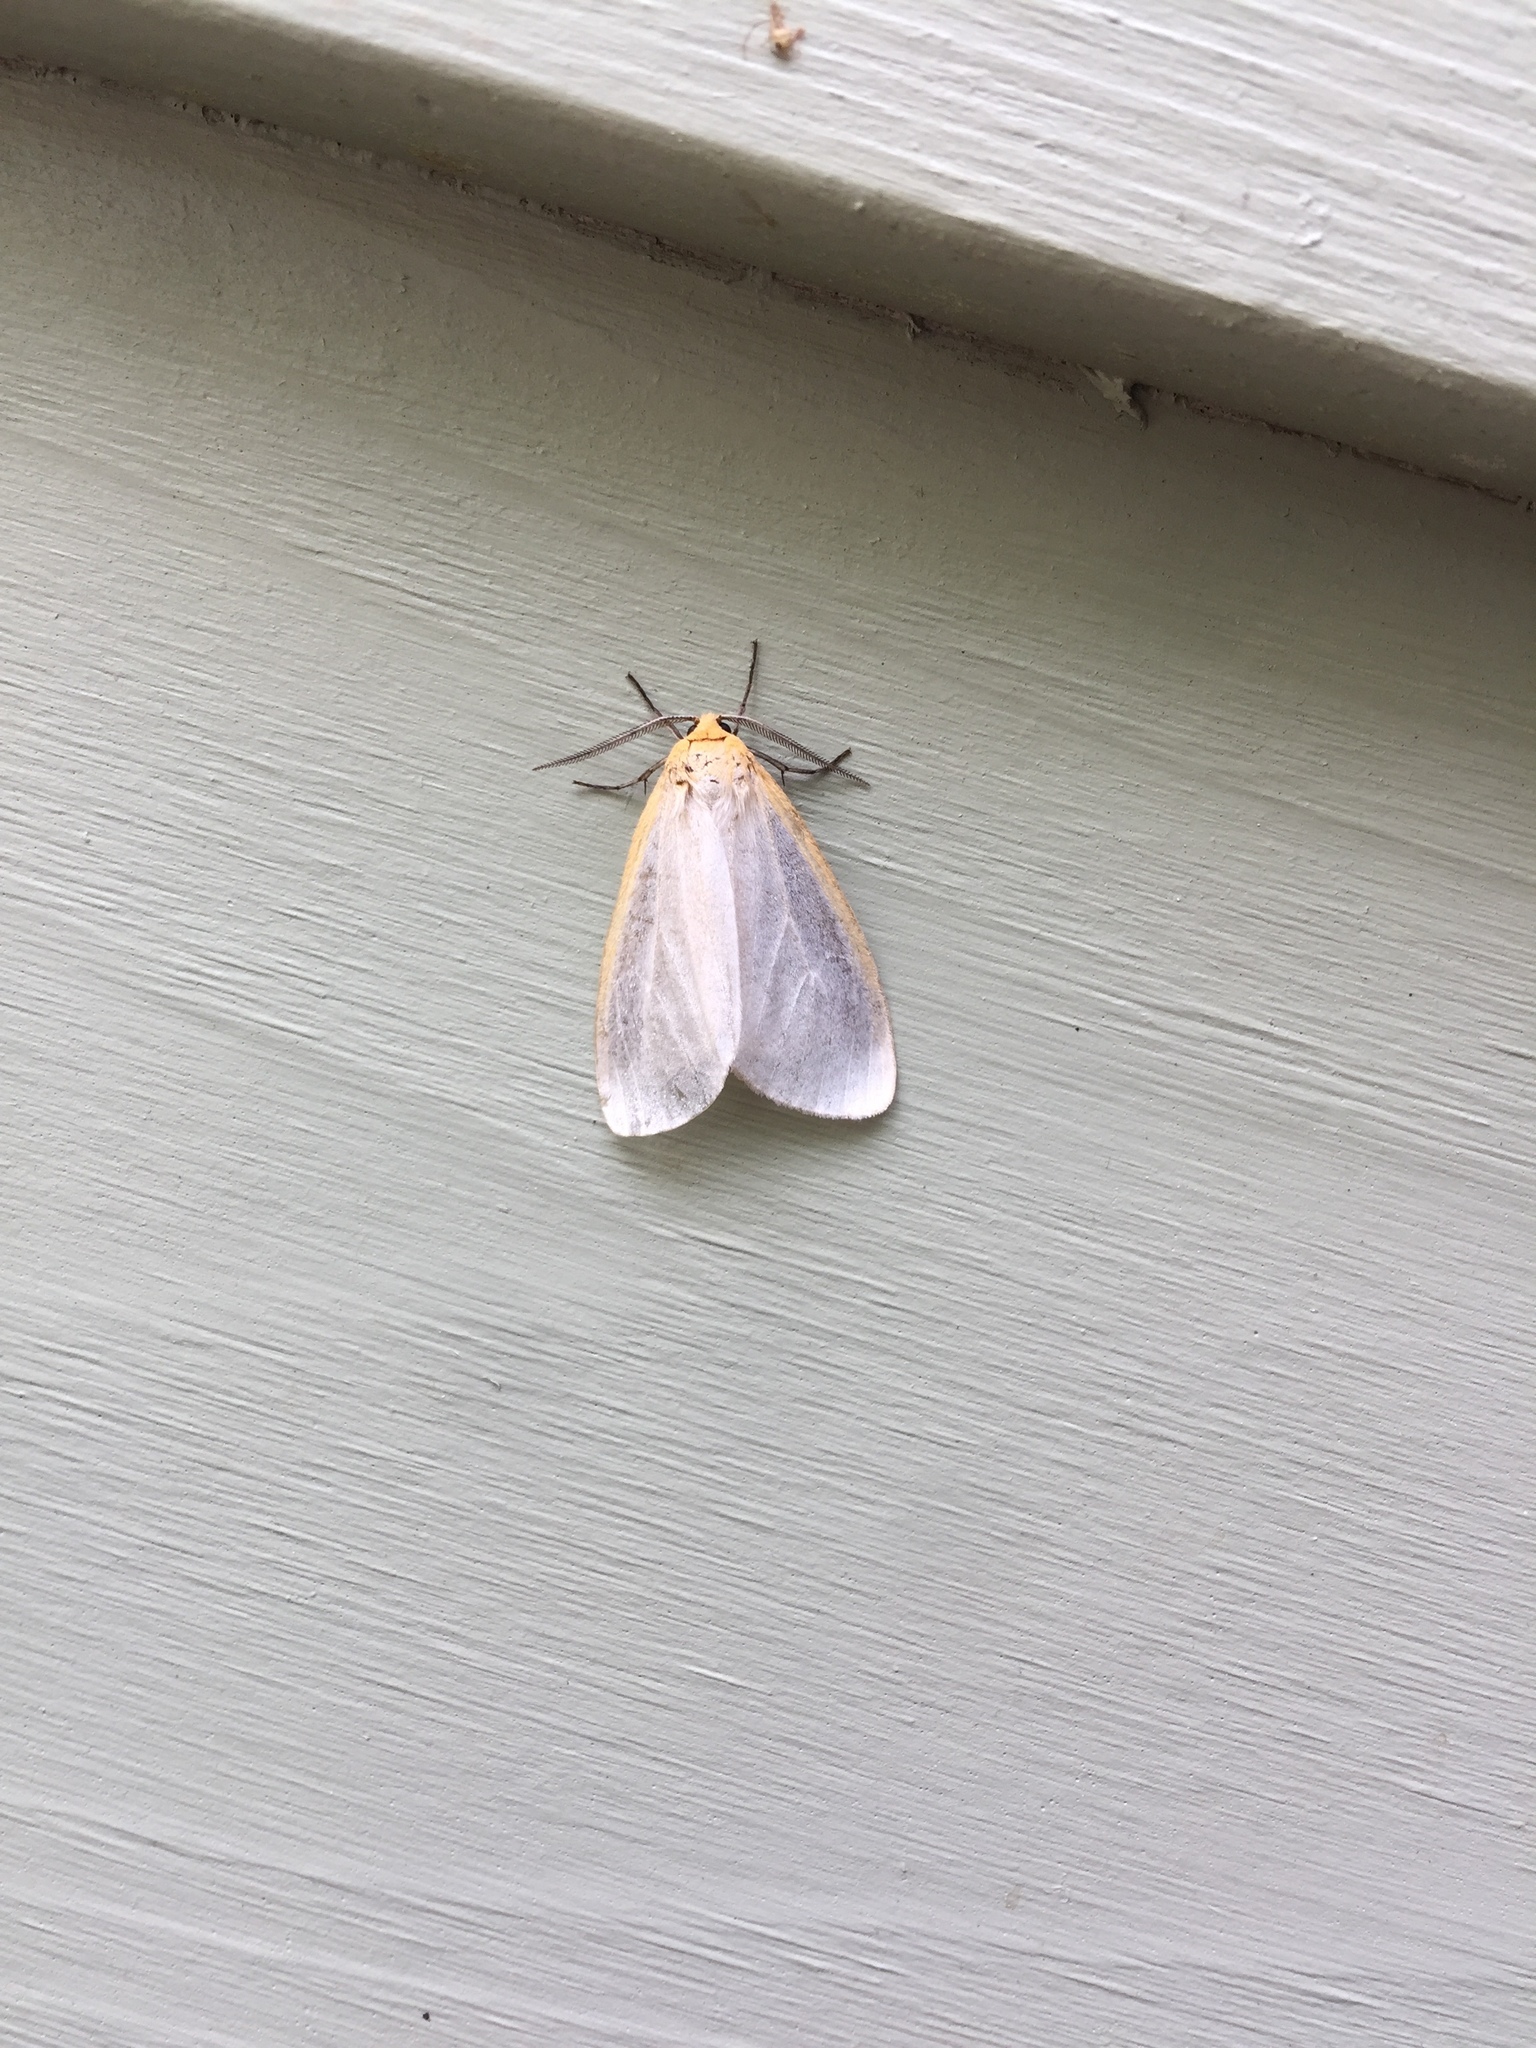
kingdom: Animalia
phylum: Arthropoda
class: Insecta
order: Lepidoptera
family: Erebidae
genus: Cycnia
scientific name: Cycnia tenera
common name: Delicate cycnia moth
